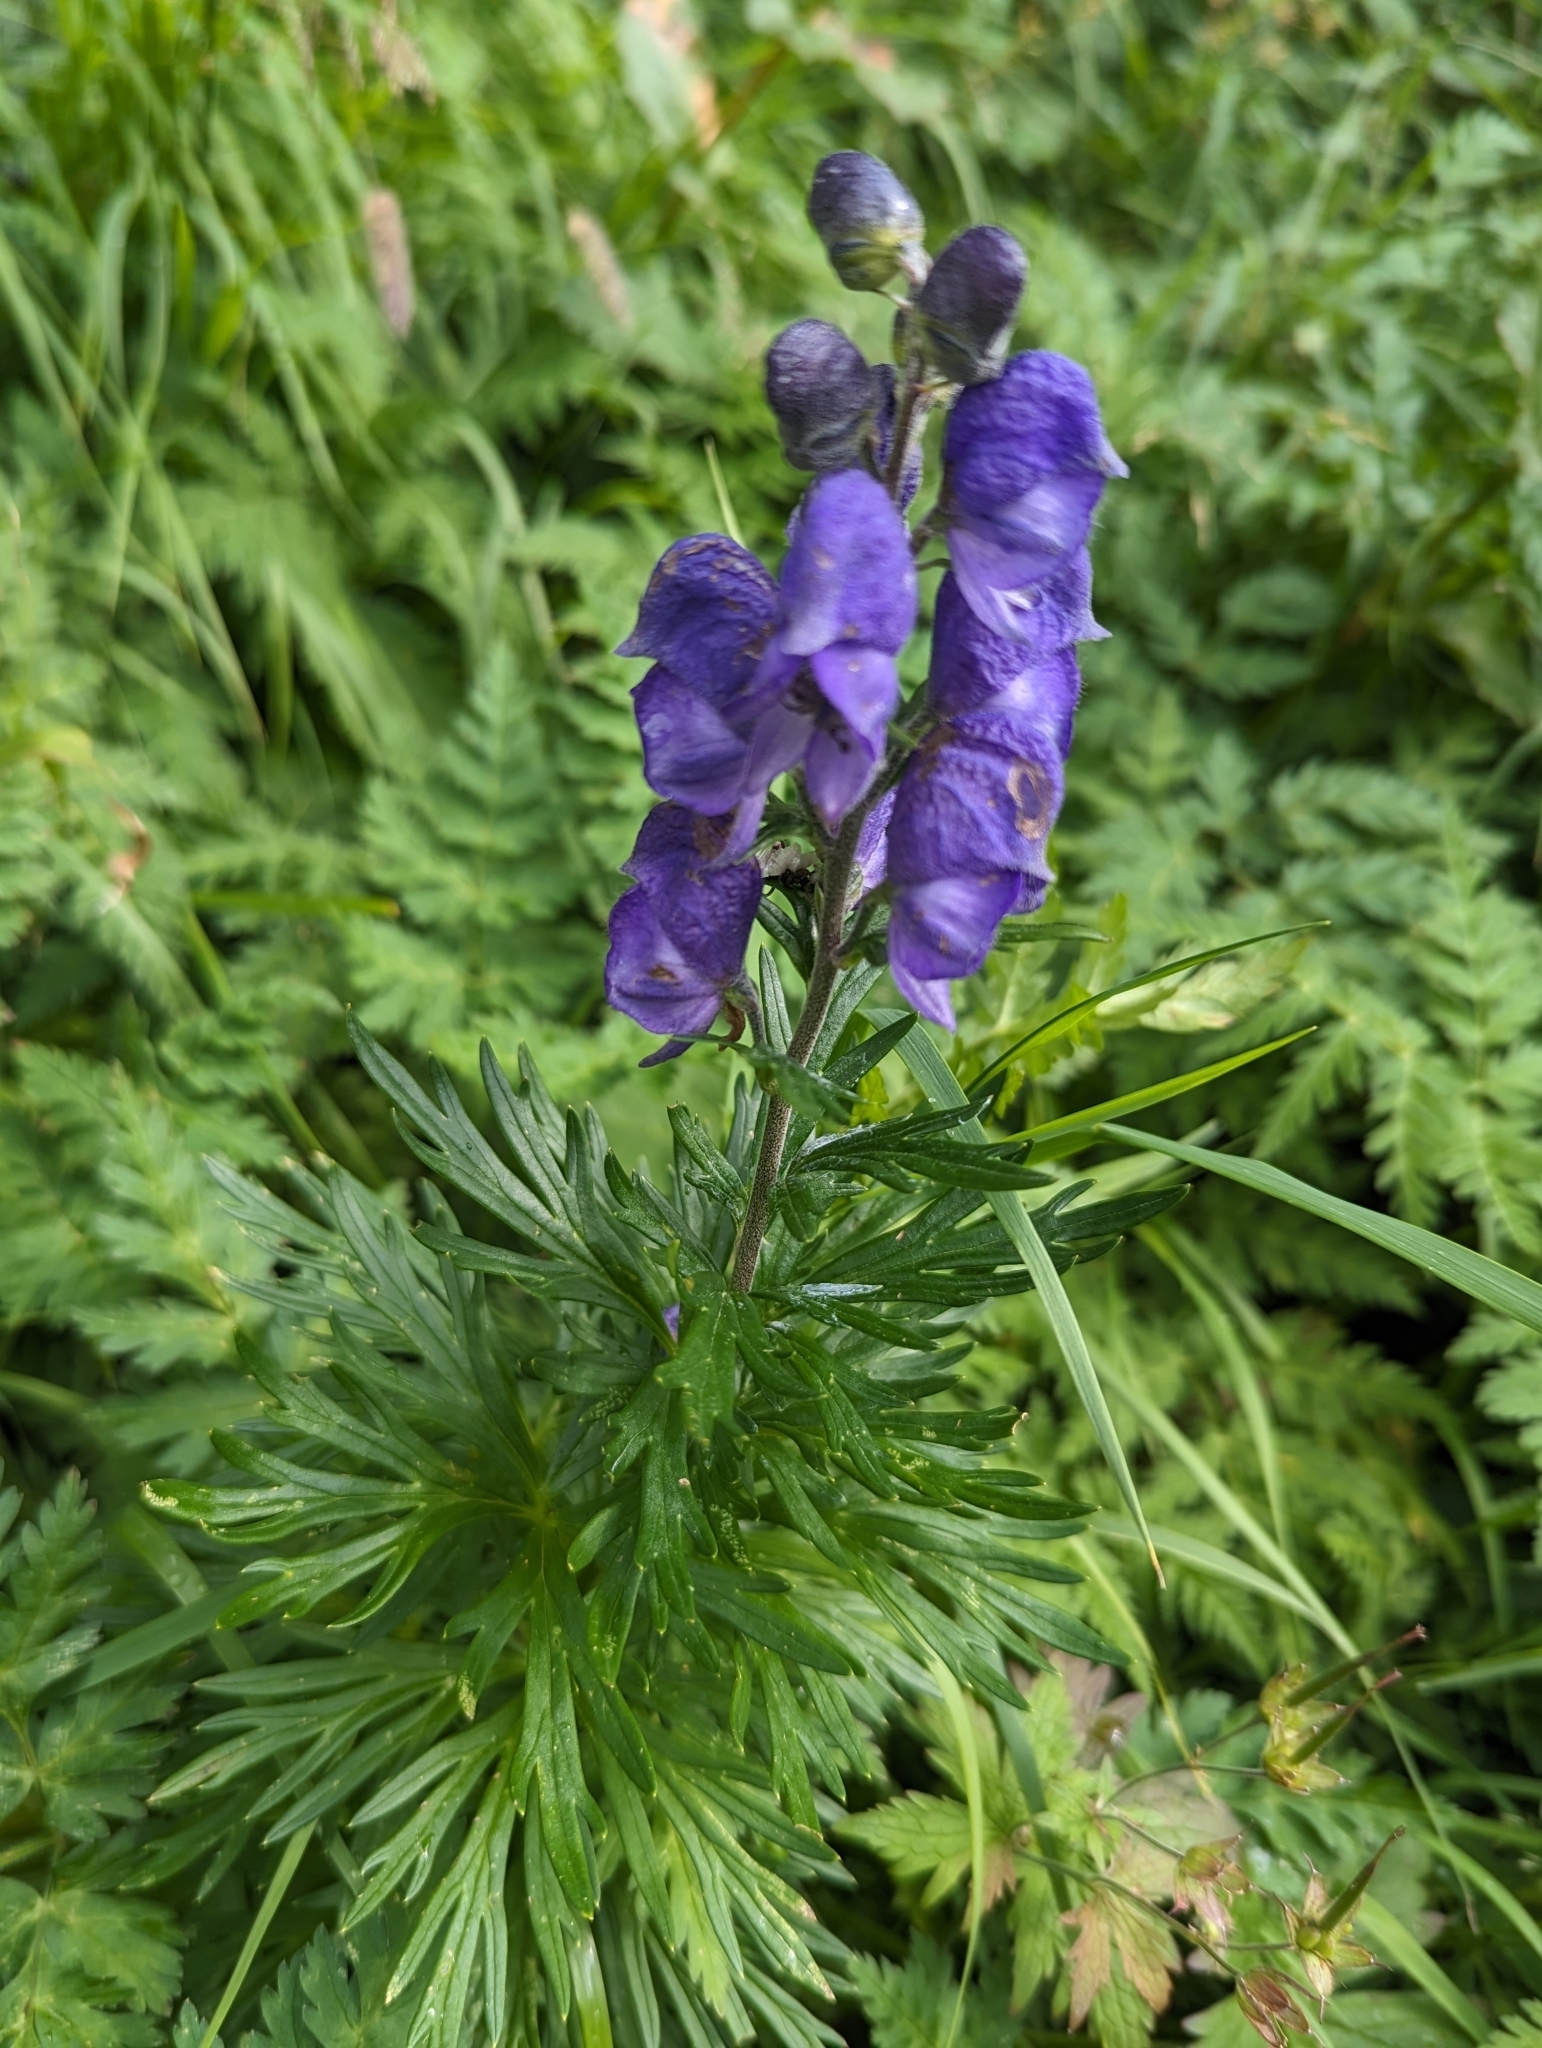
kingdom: Plantae
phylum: Tracheophyta
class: Magnoliopsida
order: Ranunculales
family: Ranunculaceae
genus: Aconitum
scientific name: Aconitum napellus
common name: Garden monkshood
